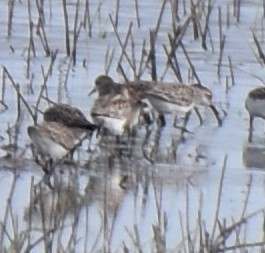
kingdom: Animalia
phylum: Chordata
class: Aves
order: Charadriiformes
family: Scolopacidae
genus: Calidris
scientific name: Calidris pusilla
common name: Semipalmated sandpiper
